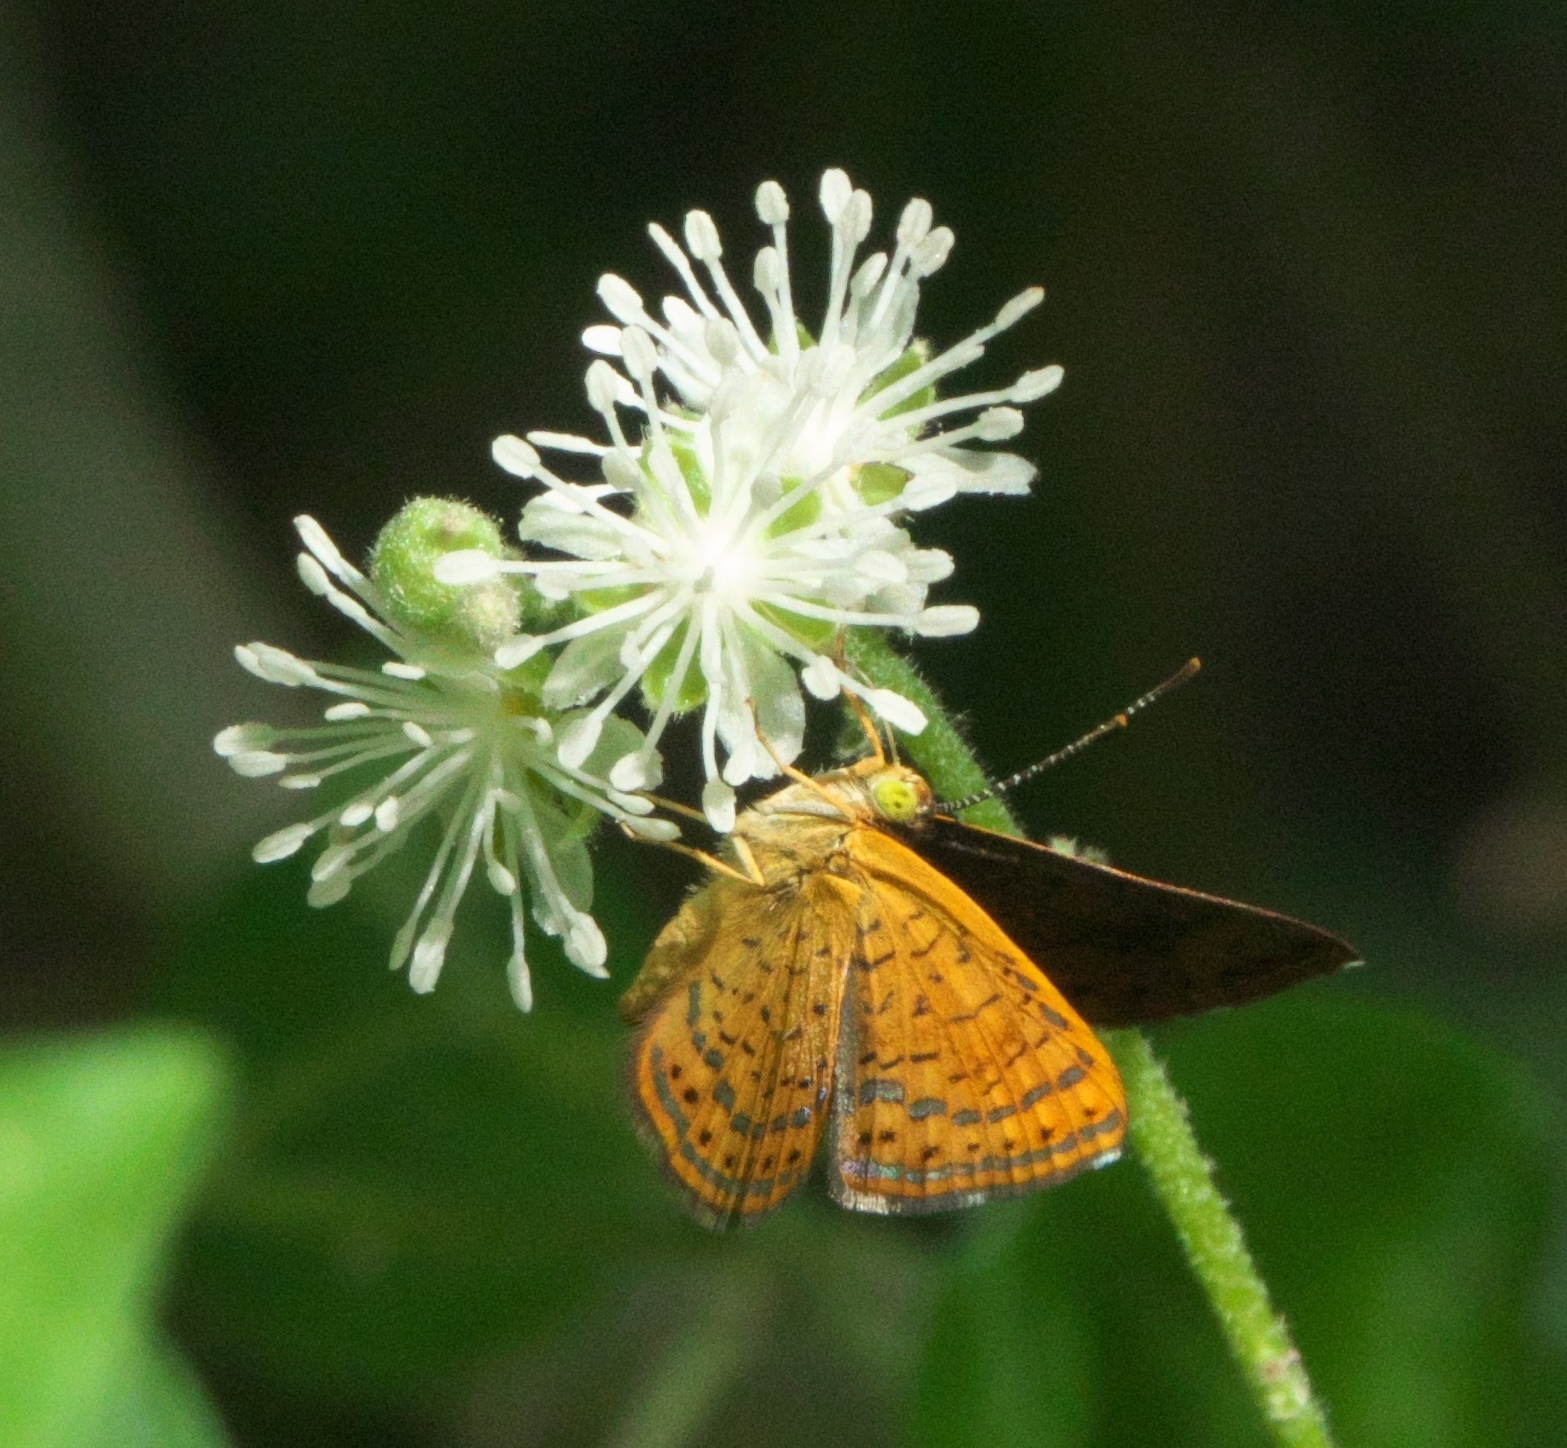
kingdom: Animalia
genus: Calephelis
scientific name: Calephelis nemesis
